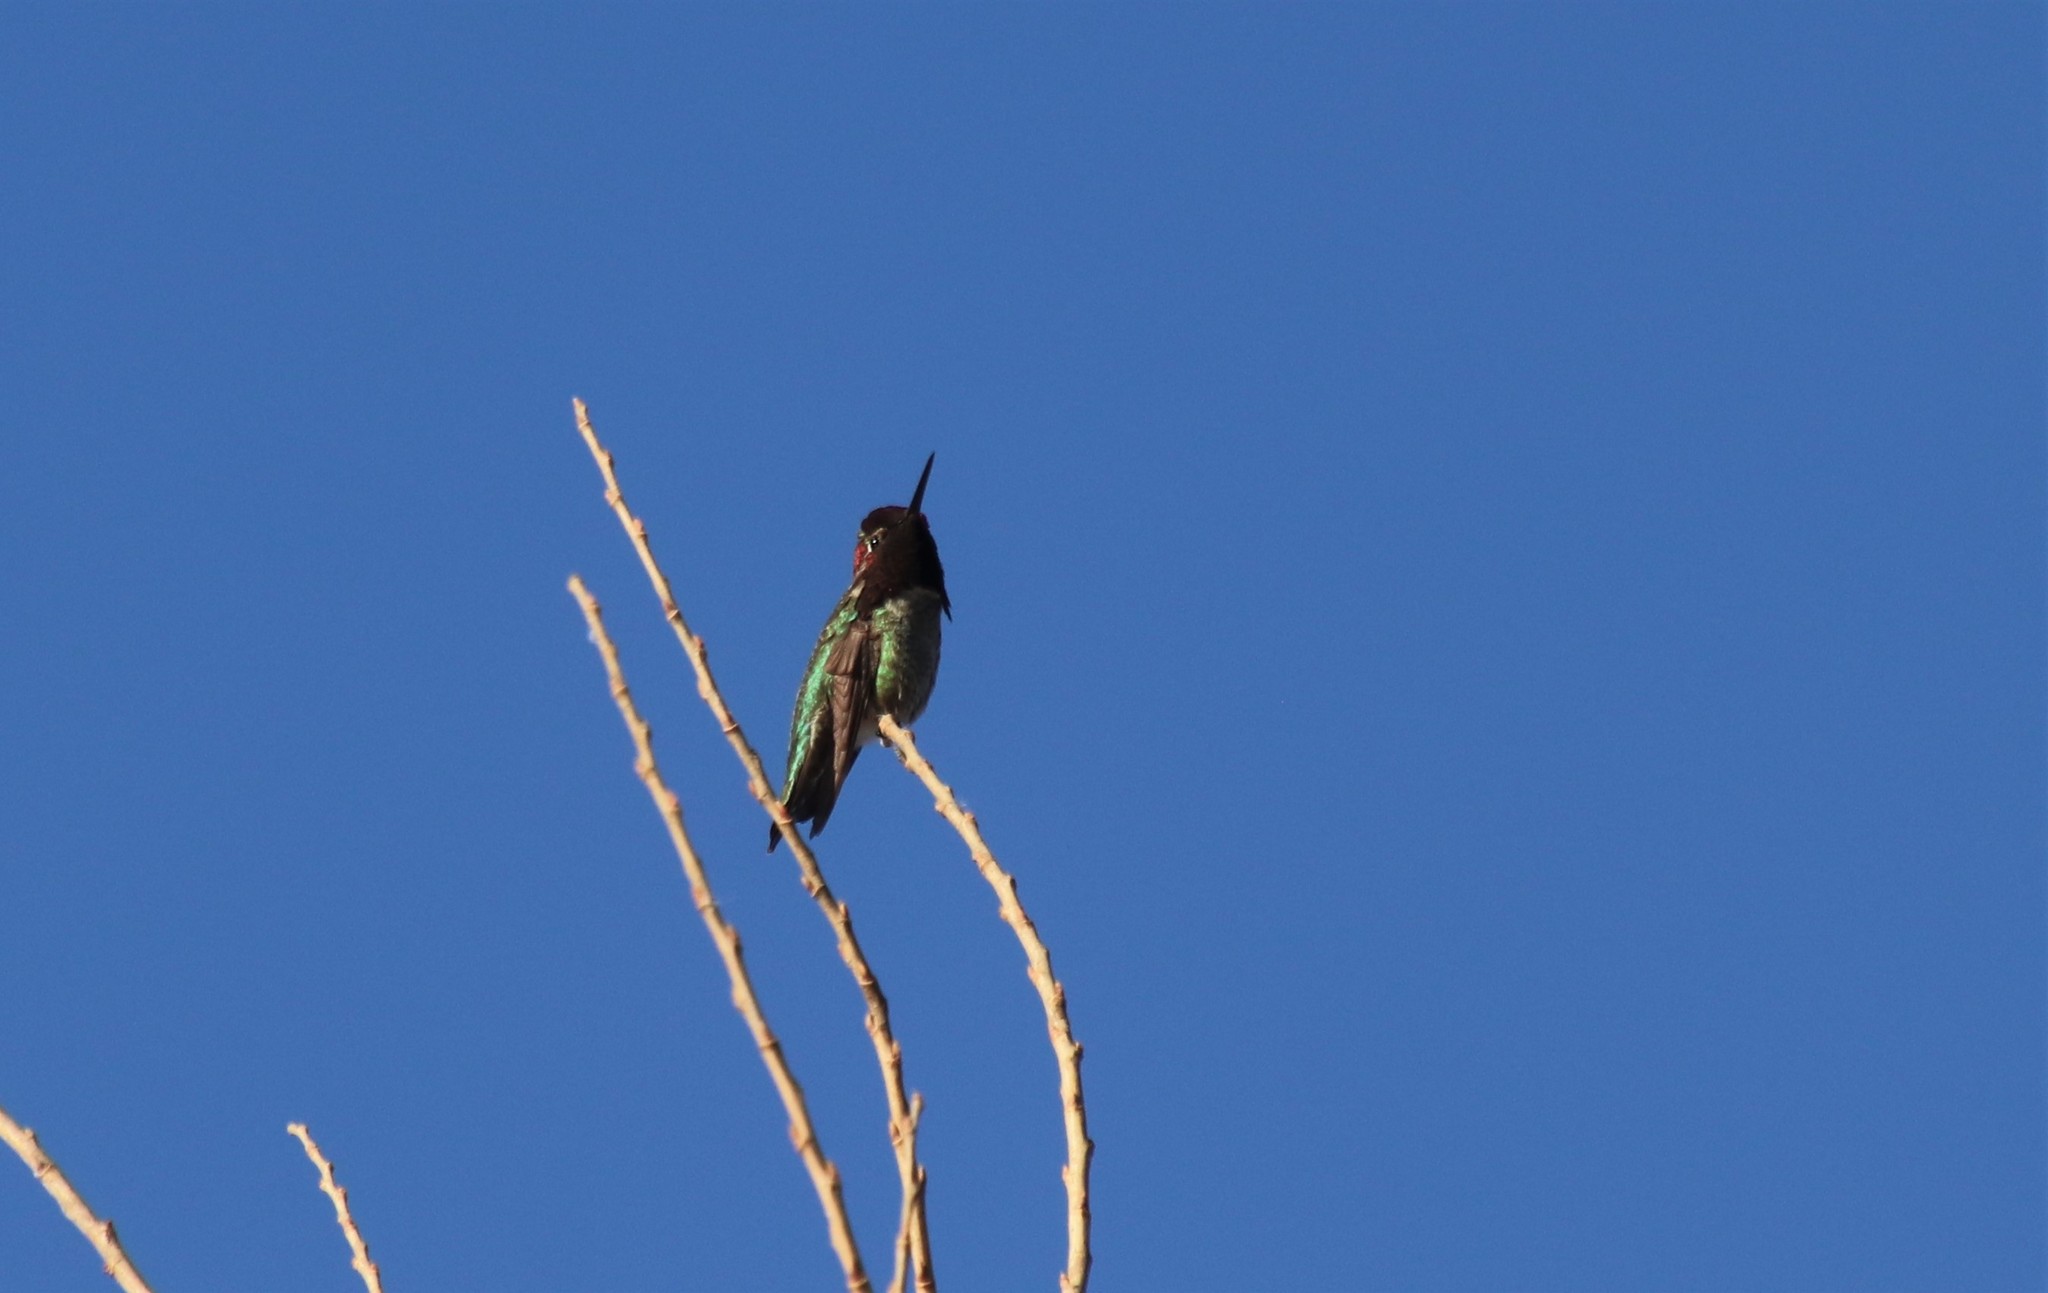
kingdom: Animalia
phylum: Chordata
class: Aves
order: Apodiformes
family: Trochilidae
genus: Calypte
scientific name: Calypte anna
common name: Anna's hummingbird
